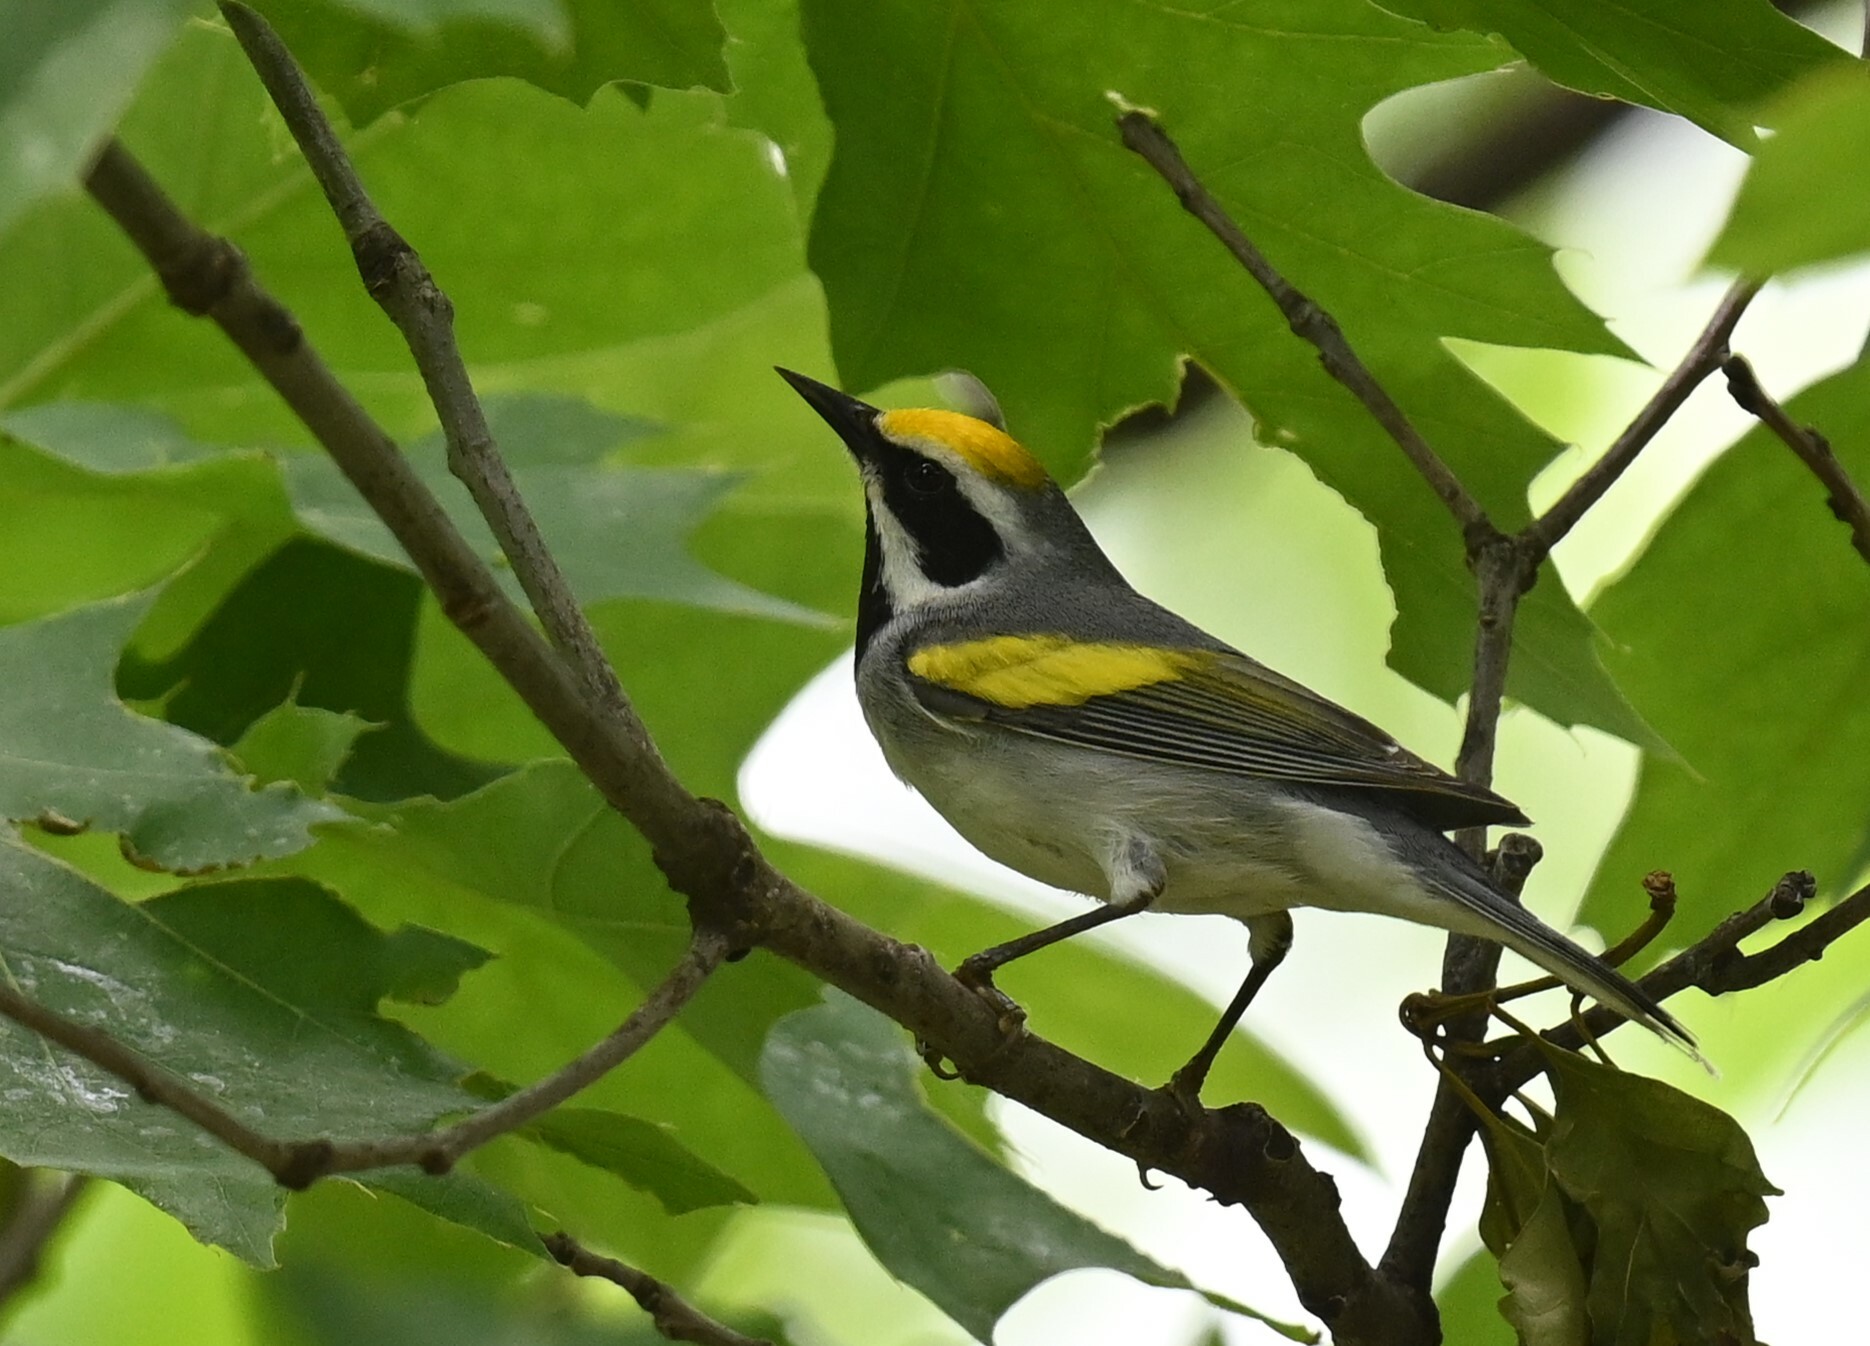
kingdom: Animalia
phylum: Chordata
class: Aves
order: Passeriformes
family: Parulidae
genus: Vermivora
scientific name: Vermivora chrysoptera
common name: Golden-winged warbler
